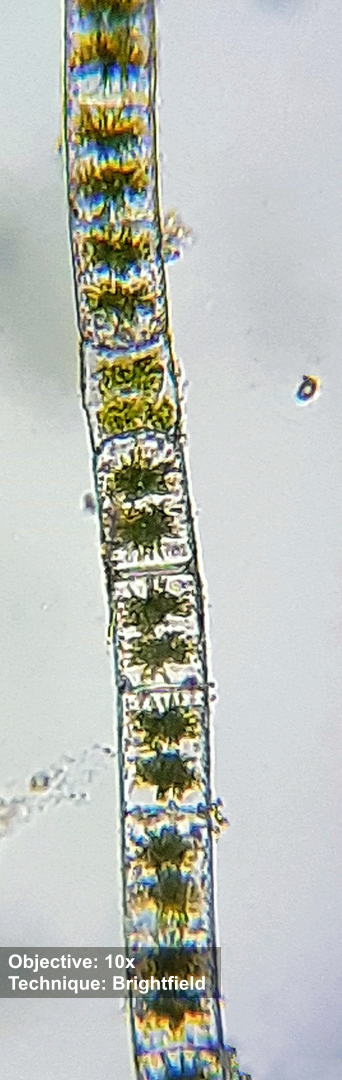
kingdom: Plantae
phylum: Charophyta
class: Zygnematophyceae
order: Zygnematales
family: Zygnemataceae
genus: Zygnema
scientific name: Zygnema
